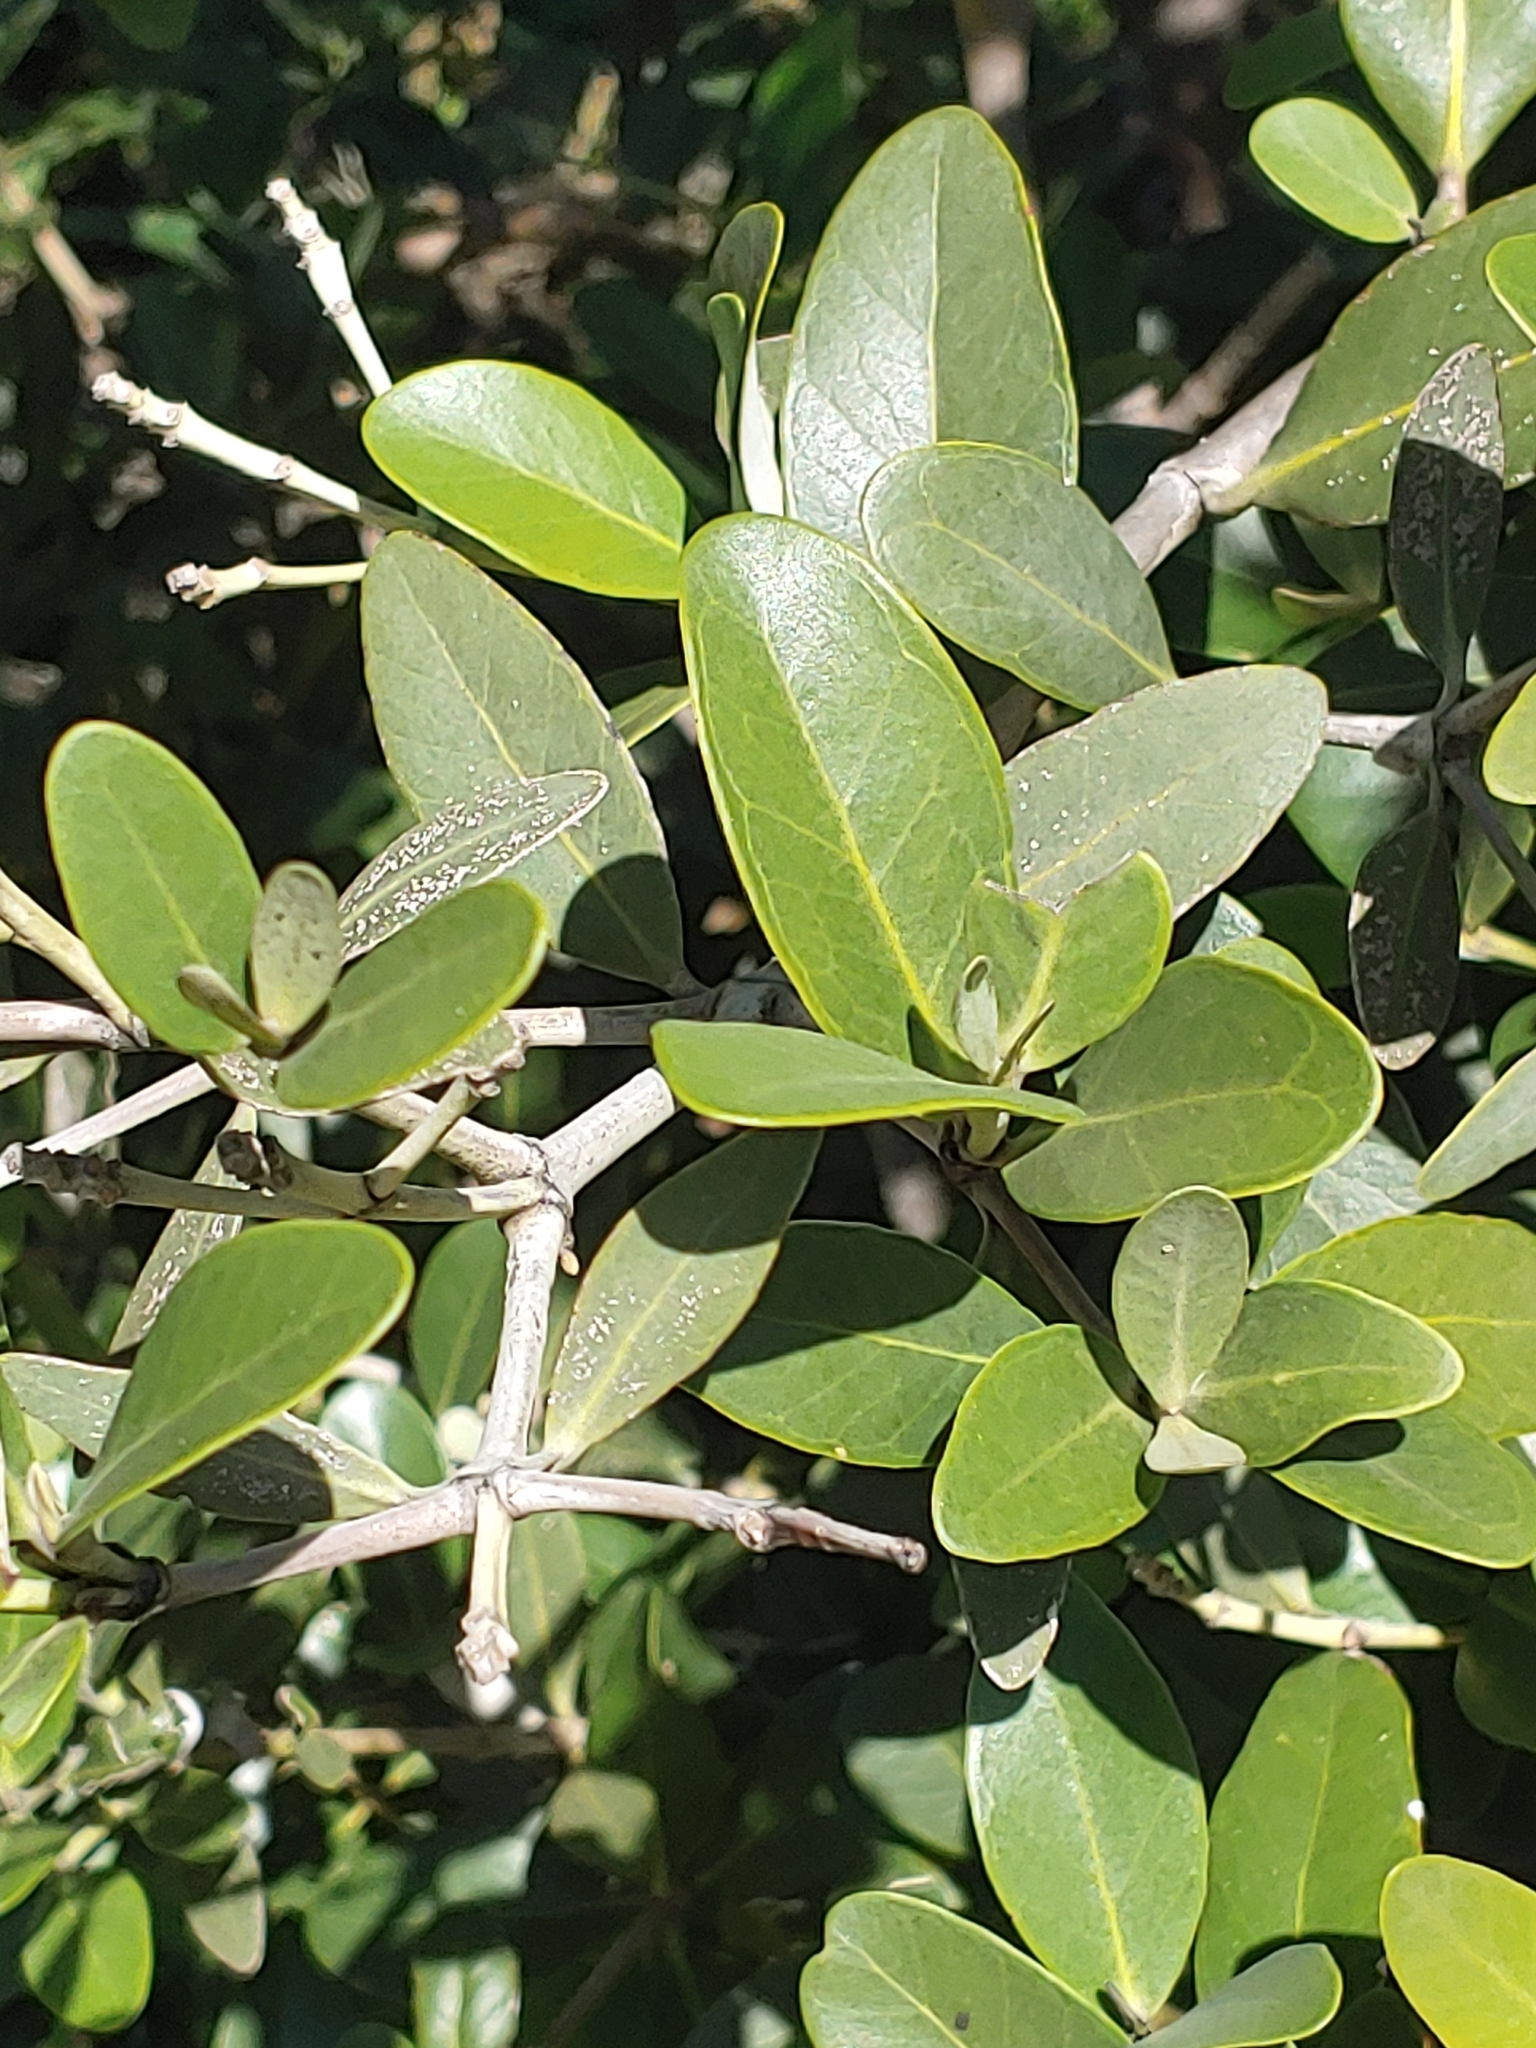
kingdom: Plantae
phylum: Tracheophyta
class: Magnoliopsida
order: Lamiales
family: Acanthaceae
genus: Avicennia
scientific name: Avicennia germinans
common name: Black mangrove
